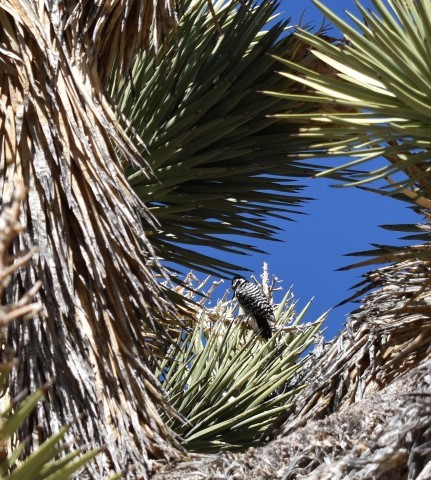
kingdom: Animalia
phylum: Chordata
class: Aves
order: Piciformes
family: Picidae
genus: Dryobates
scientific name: Dryobates scalaris
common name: Ladder-backed woodpecker
